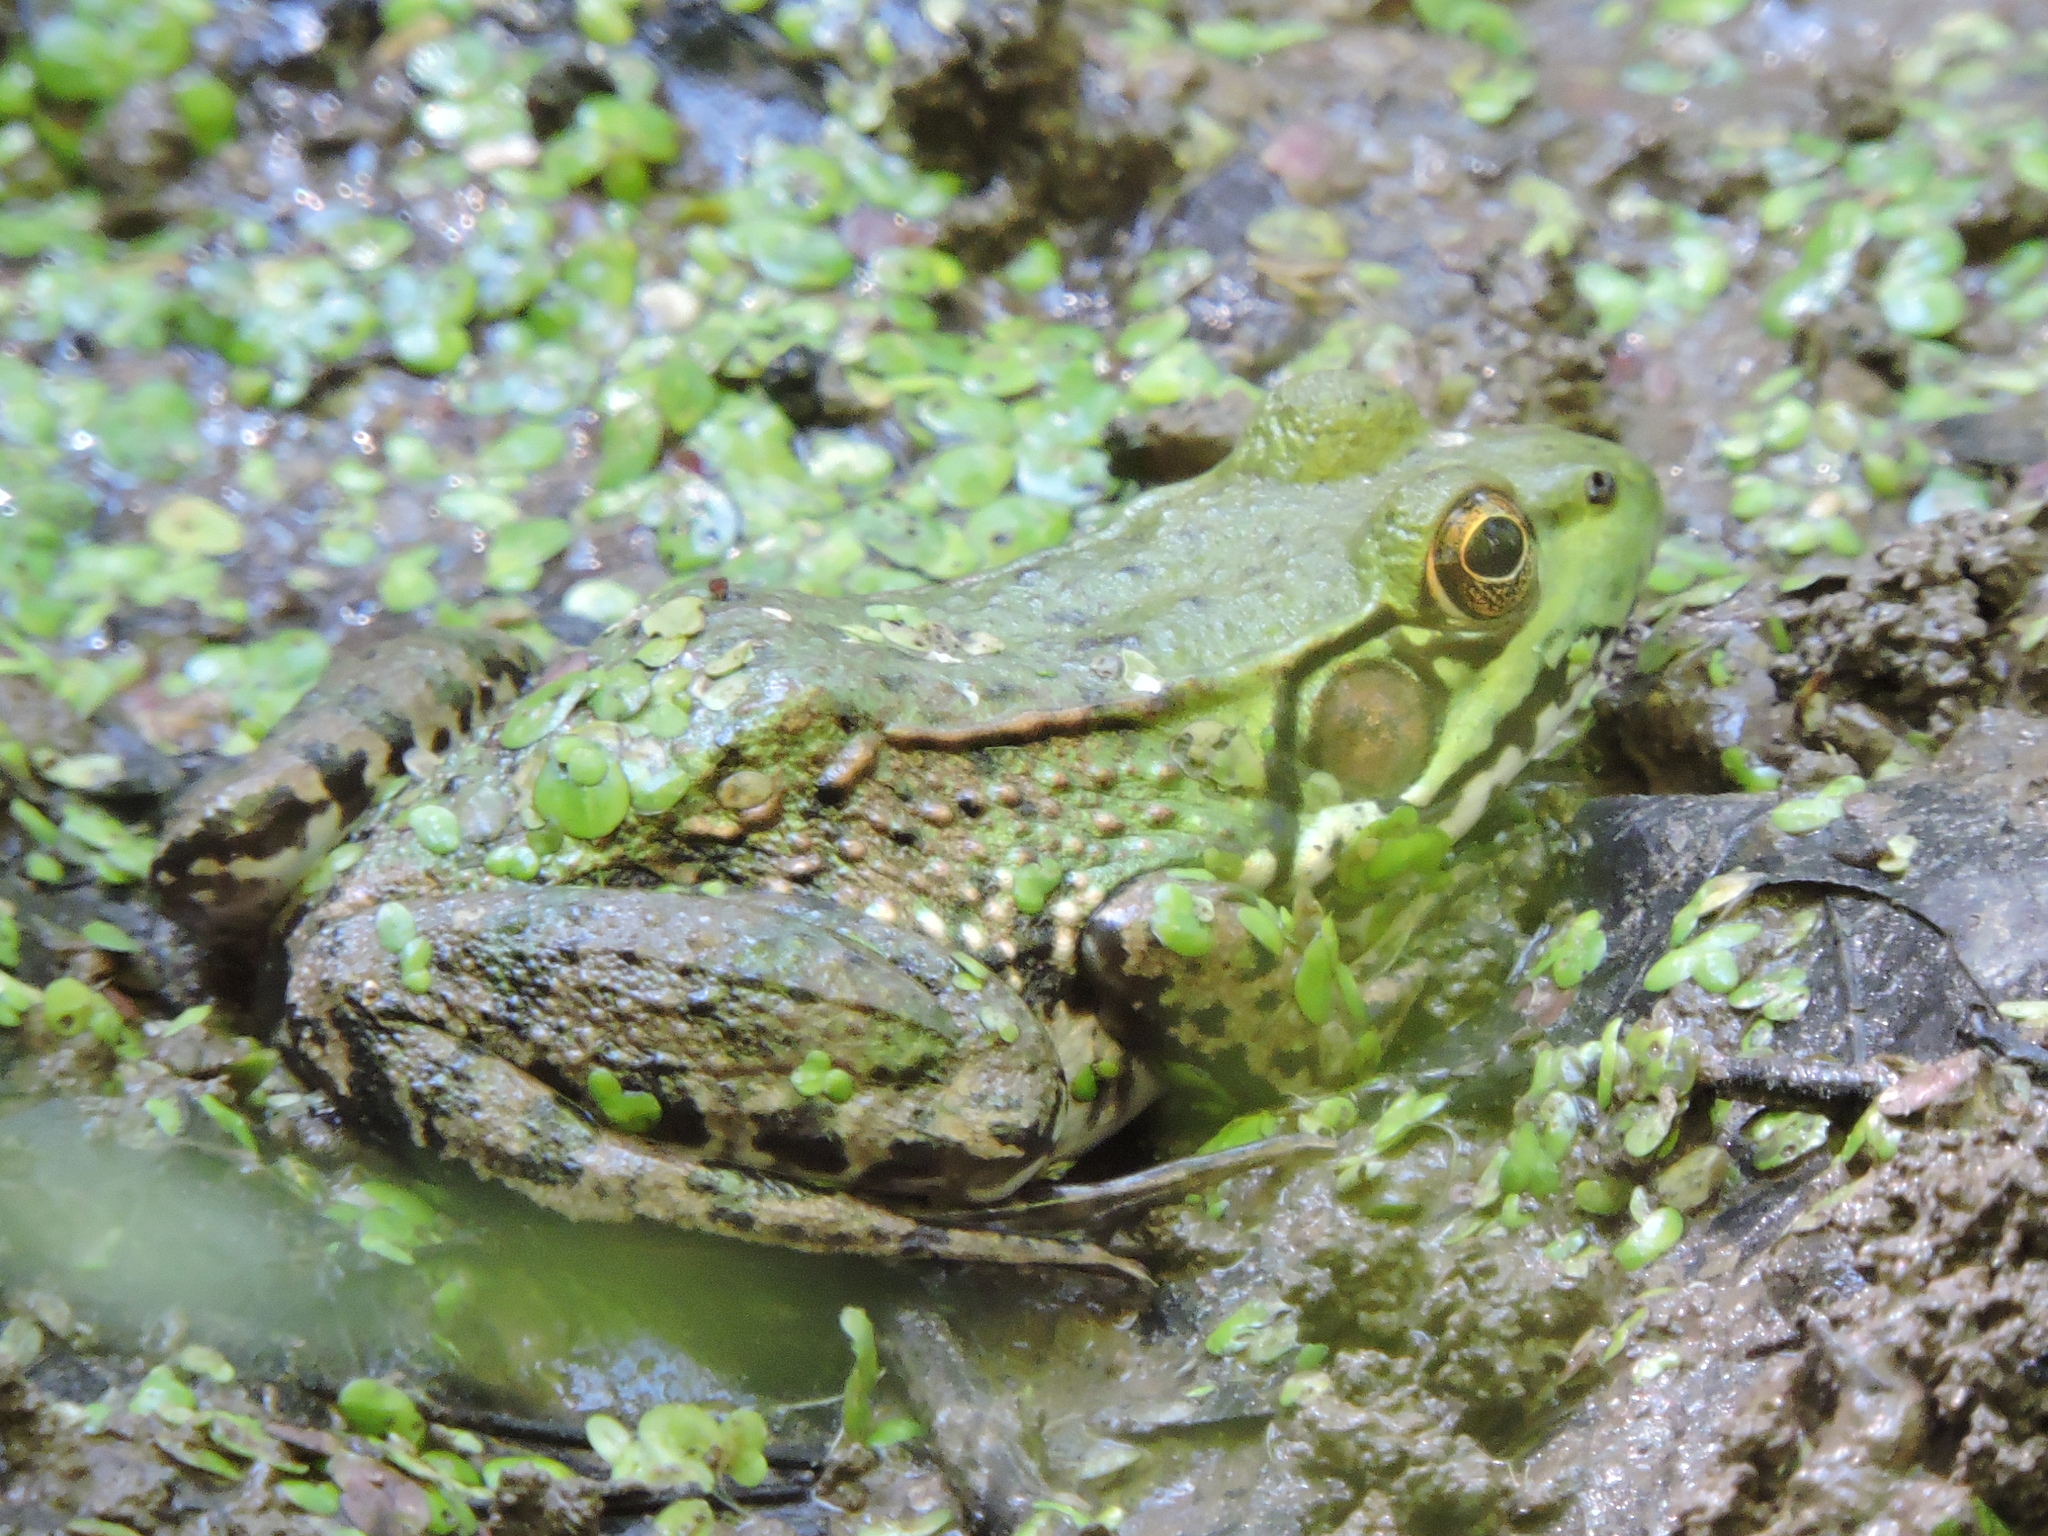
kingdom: Animalia
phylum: Chordata
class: Amphibia
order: Anura
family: Ranidae
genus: Lithobates
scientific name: Lithobates clamitans
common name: Green frog
